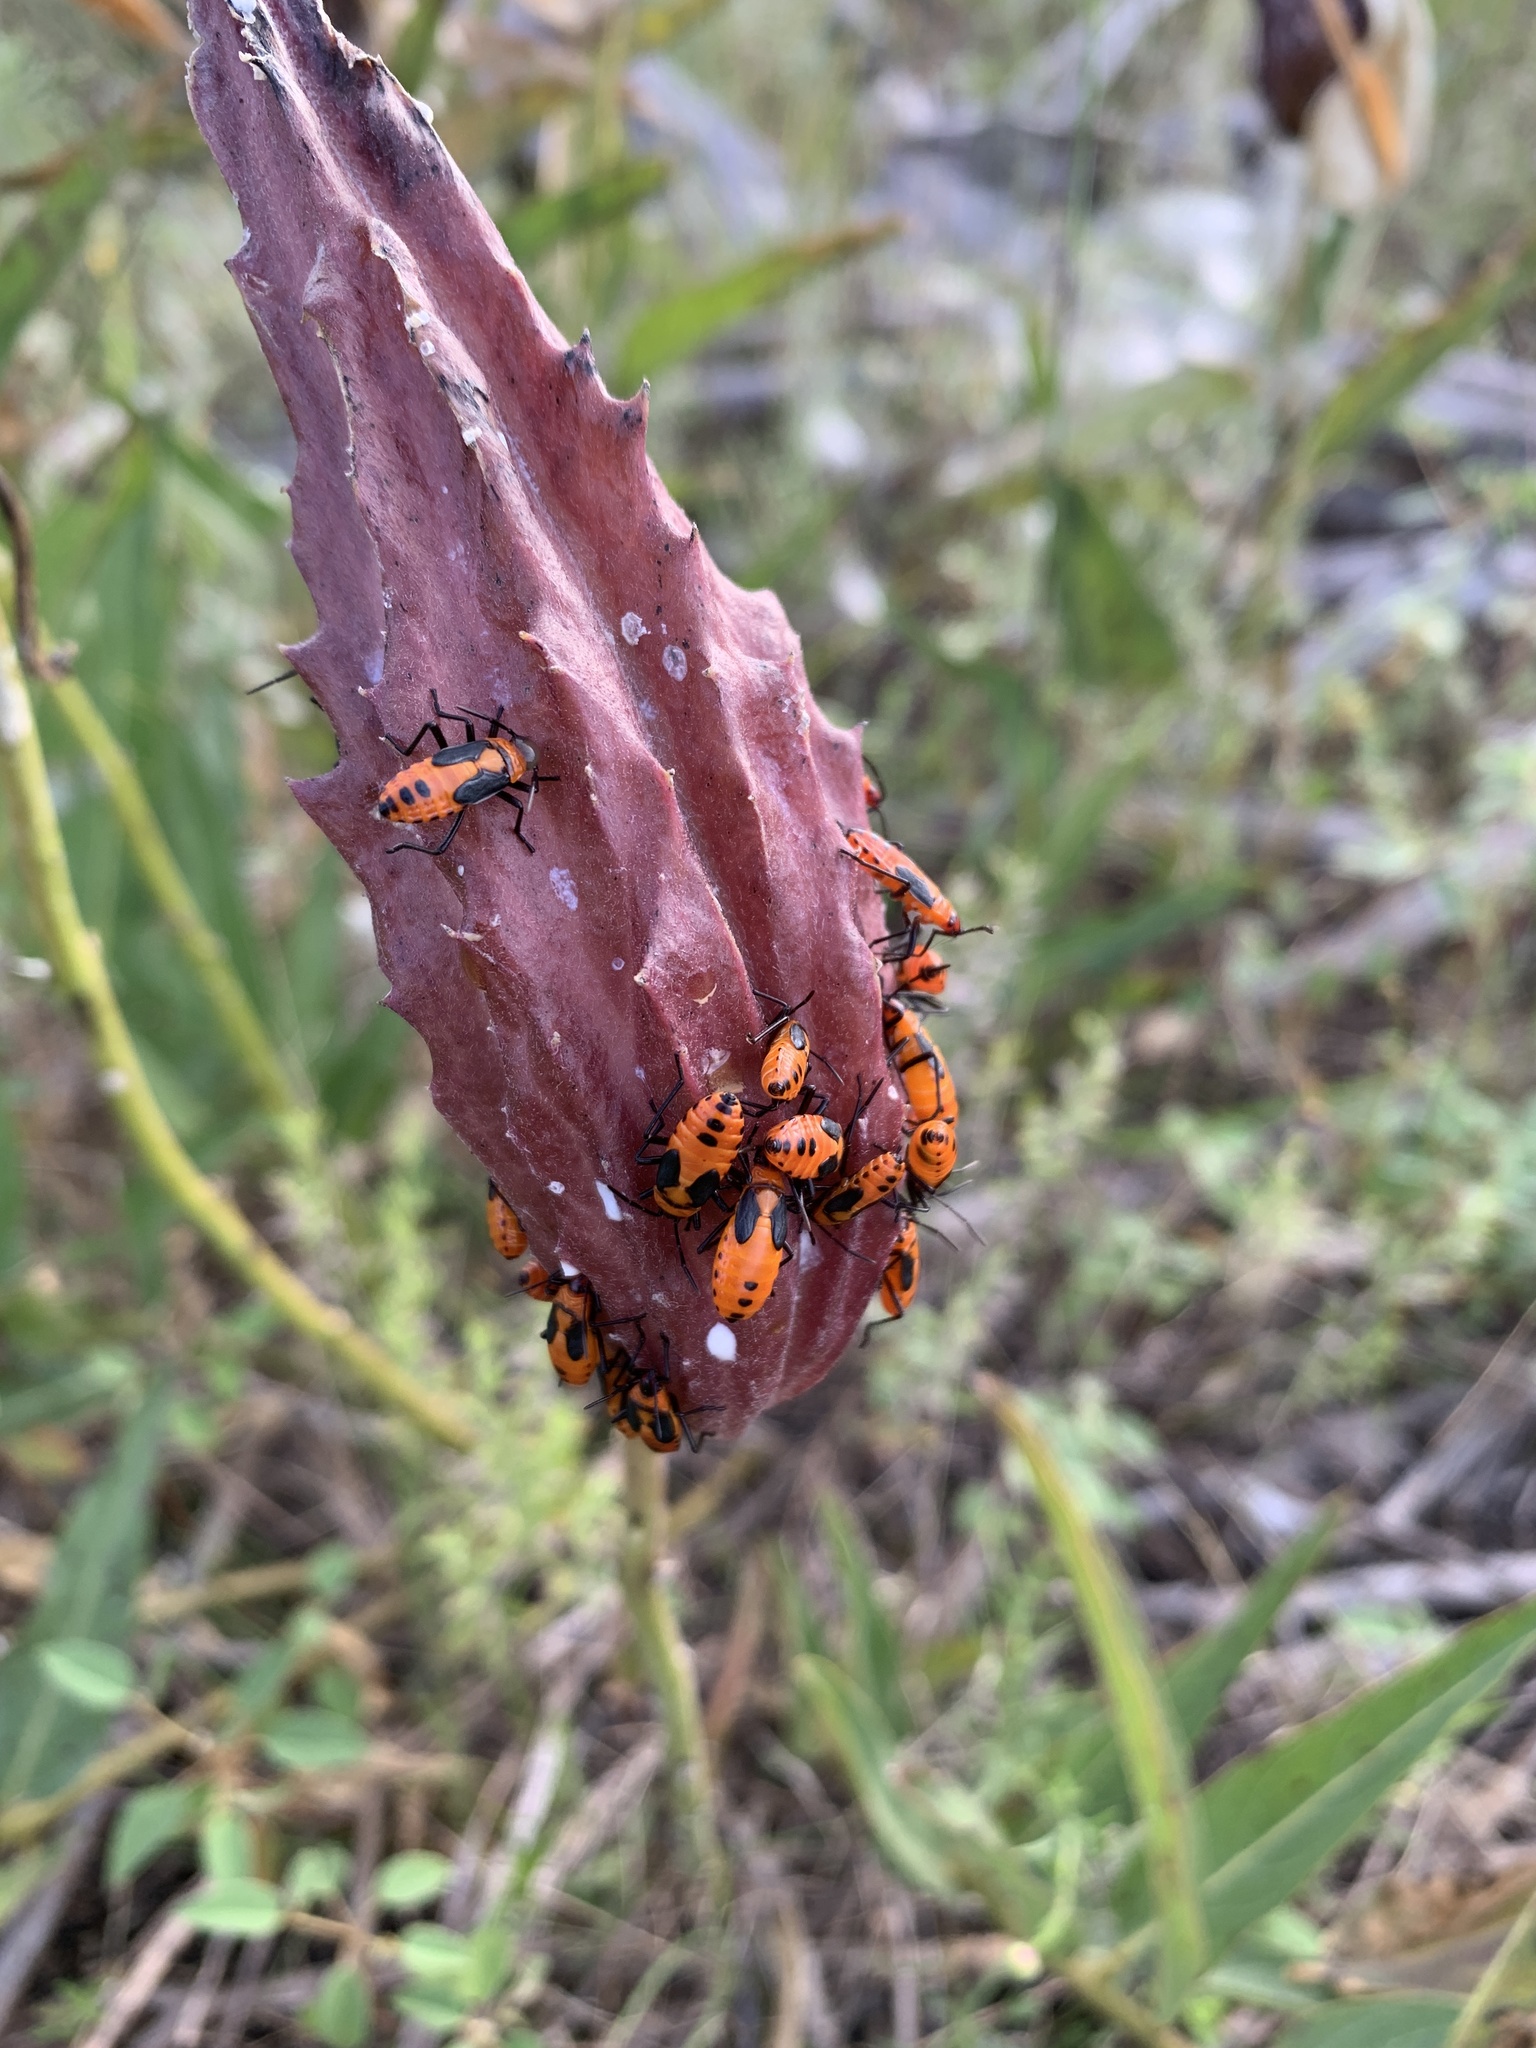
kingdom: Animalia
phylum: Arthropoda
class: Insecta
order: Hemiptera
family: Lygaeidae
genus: Oncopeltus
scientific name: Oncopeltus fasciatus
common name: Large milkweed bug
